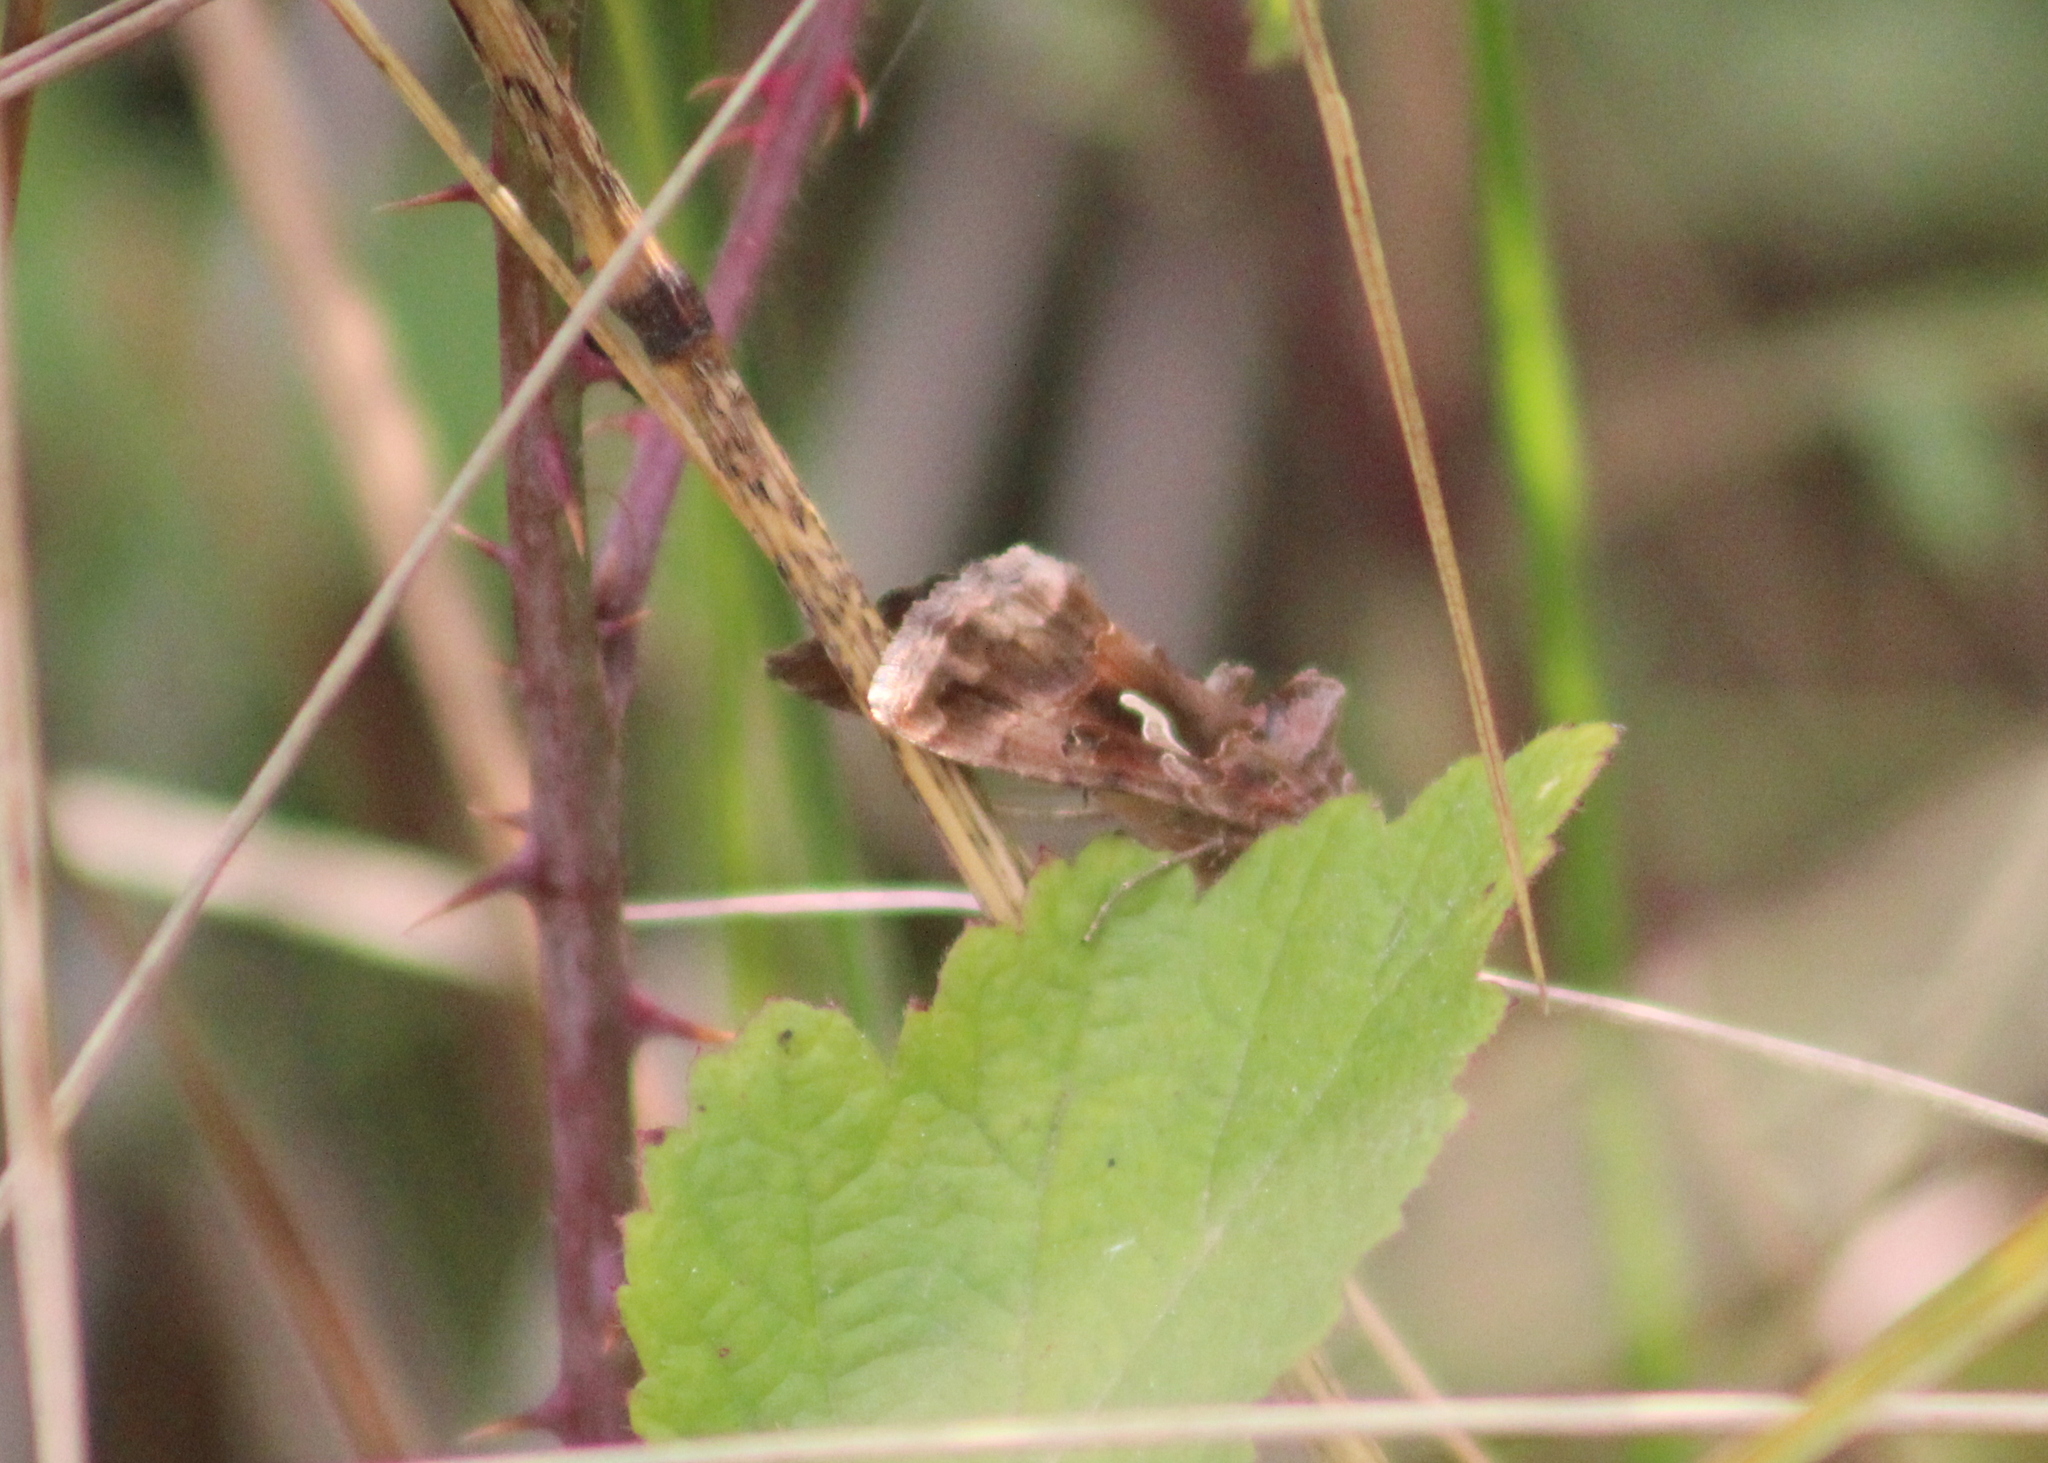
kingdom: Animalia
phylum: Arthropoda
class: Insecta
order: Lepidoptera
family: Noctuidae
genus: Autographa
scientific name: Autographa gamma
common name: Silver y
